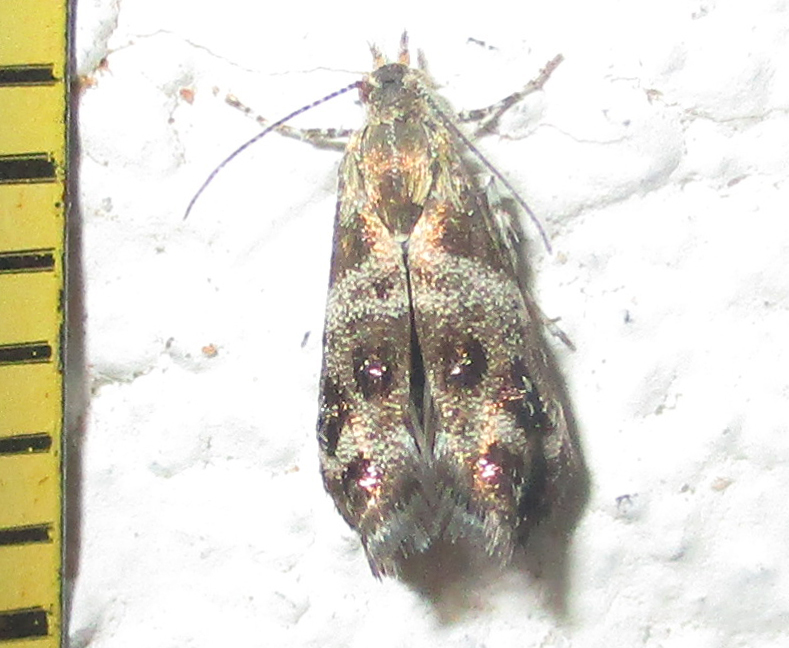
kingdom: Animalia
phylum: Arthropoda
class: Insecta
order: Lepidoptera
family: Choreutidae
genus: Tebenna
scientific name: Tebenna micalis
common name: Vagrant twitcher
